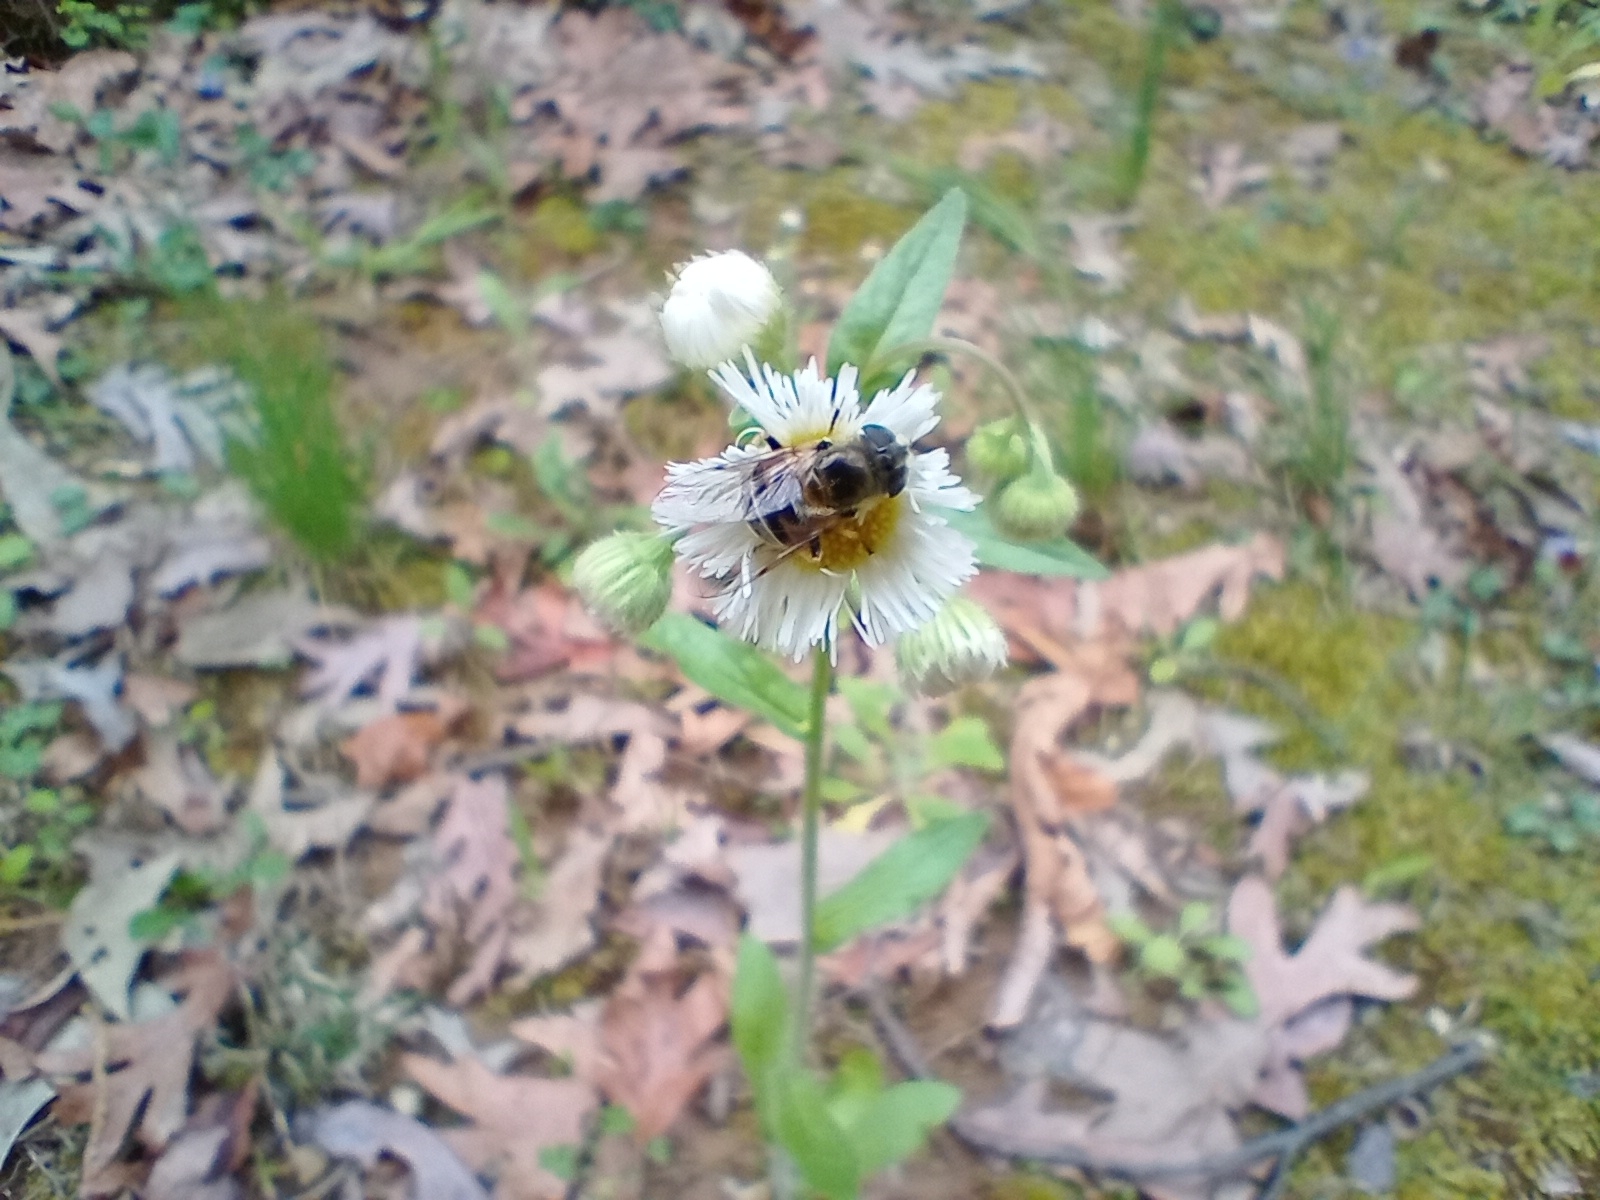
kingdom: Animalia
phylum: Arthropoda
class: Insecta
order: Diptera
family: Syrphidae
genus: Eristalis
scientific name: Eristalis stipator
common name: Yellow-shouldered drone fly
